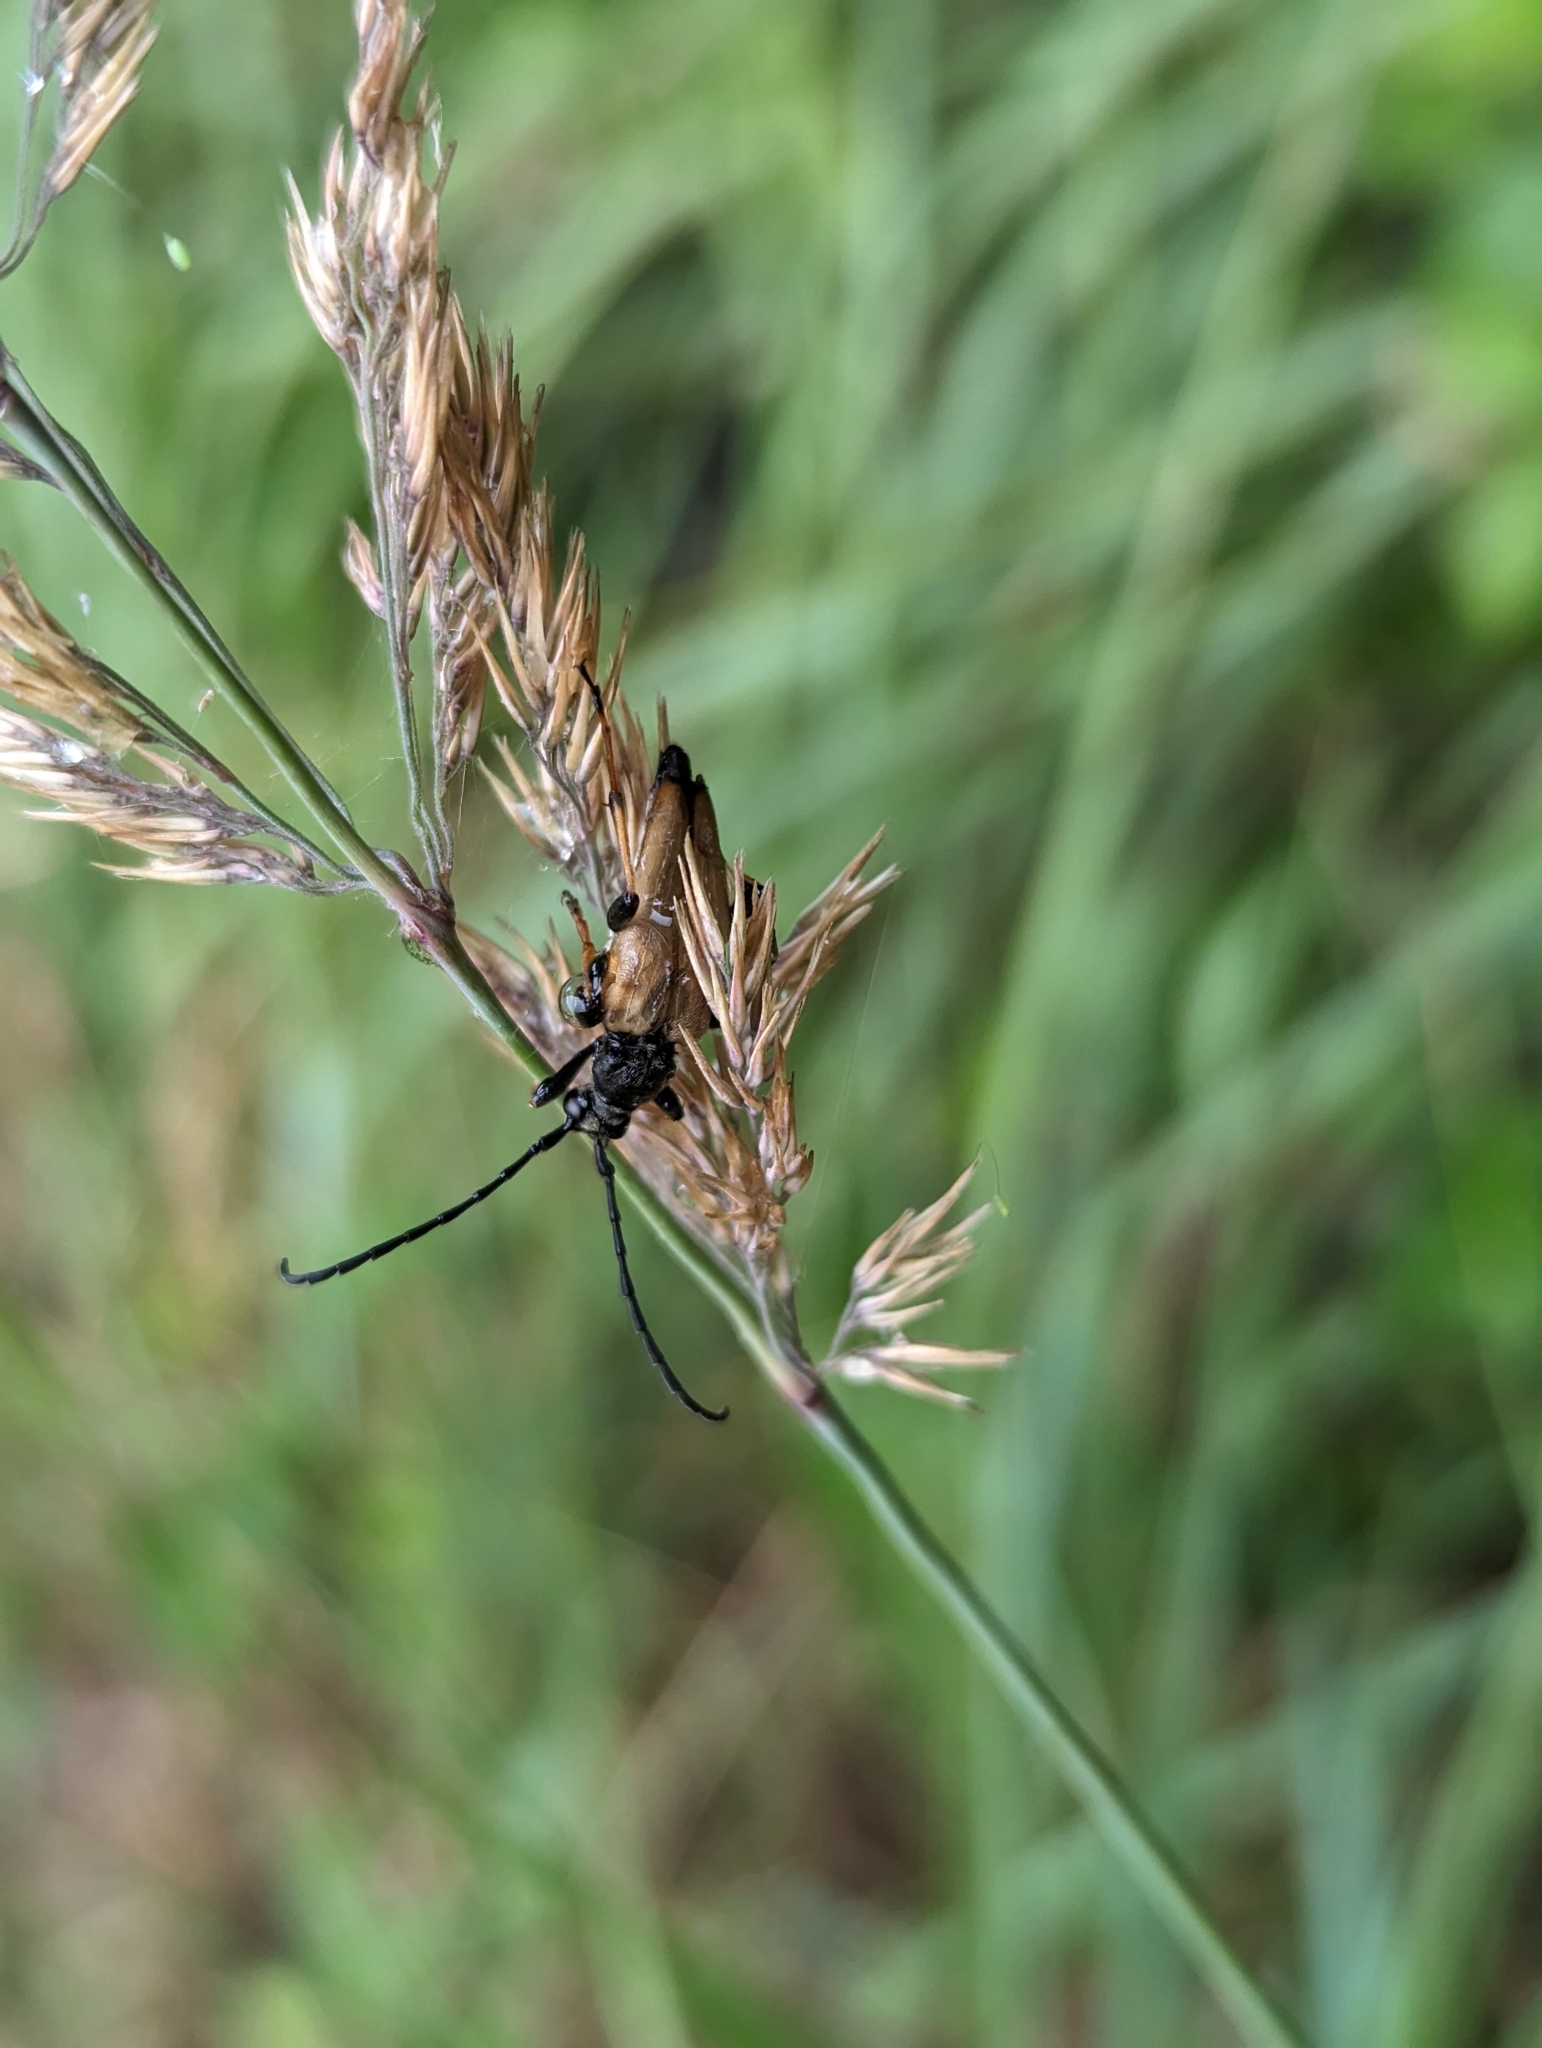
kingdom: Animalia
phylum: Arthropoda
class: Insecta
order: Coleoptera
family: Cerambycidae
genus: Stictoleptura
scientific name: Stictoleptura rubra
